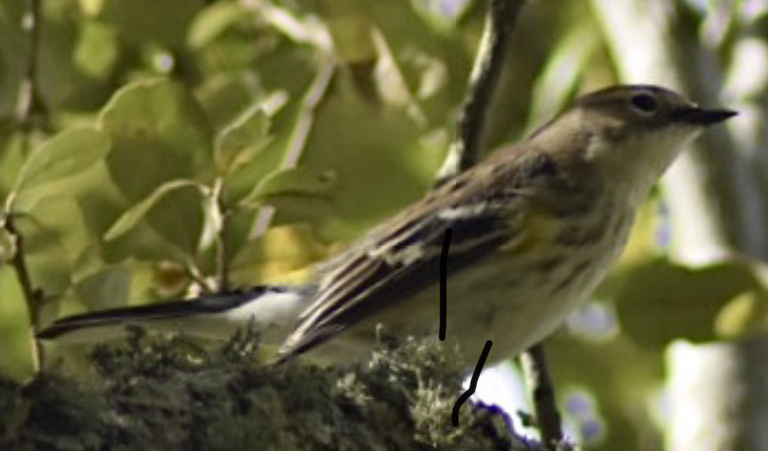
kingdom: Animalia
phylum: Chordata
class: Aves
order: Passeriformes
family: Parulidae
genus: Setophaga
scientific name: Setophaga coronata
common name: Myrtle warbler
